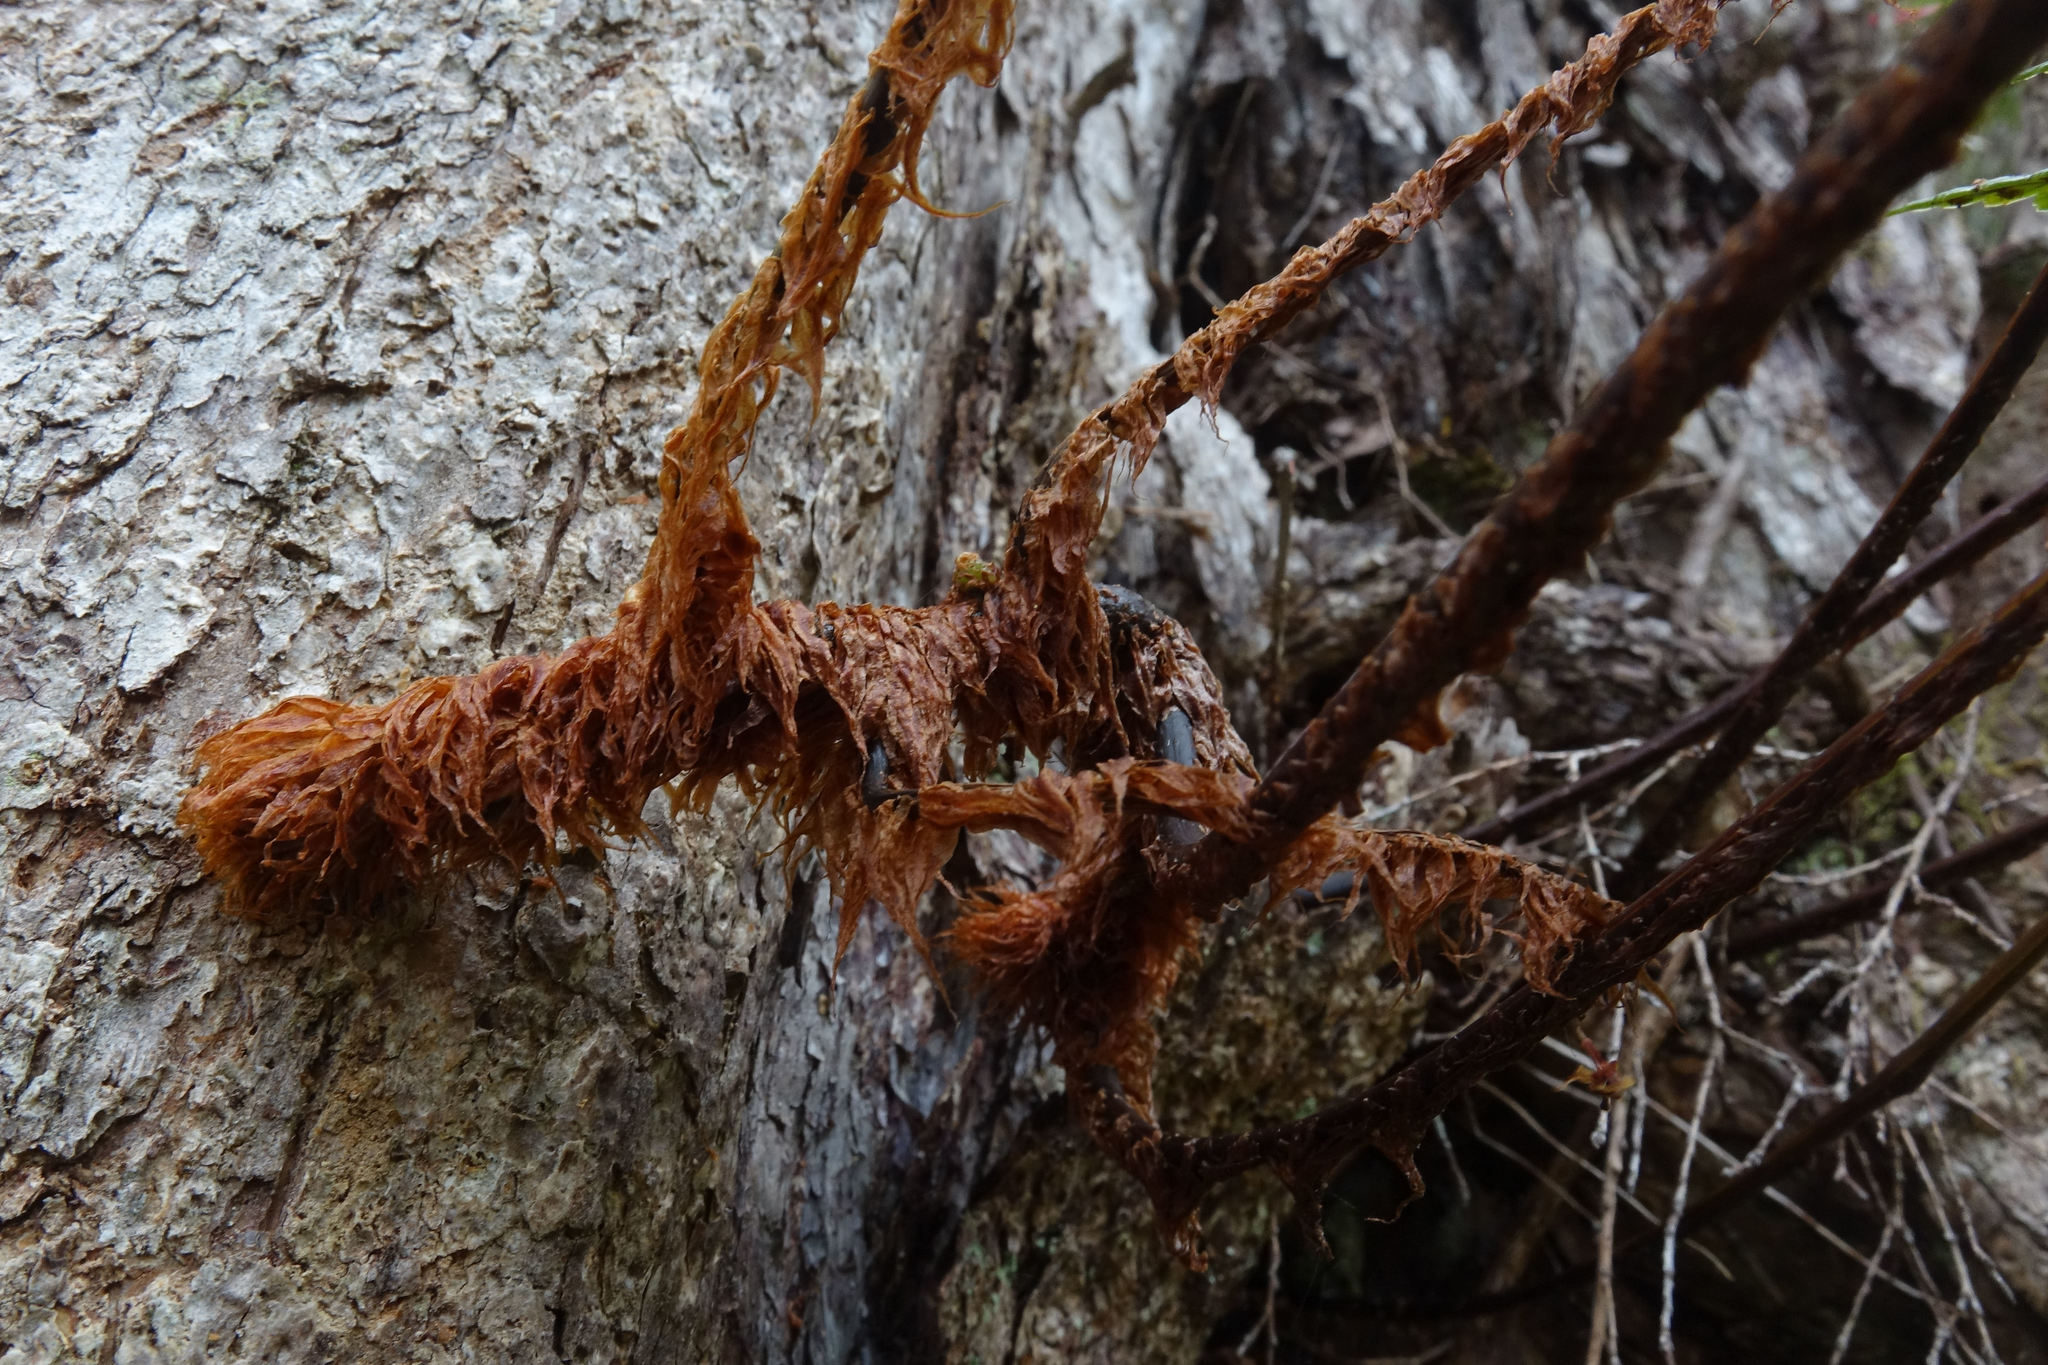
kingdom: Plantae
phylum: Tracheophyta
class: Polypodiopsida
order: Polypodiales
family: Dryopteridaceae
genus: Rumohra
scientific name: Rumohra adiantiformis
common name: Leather fern
